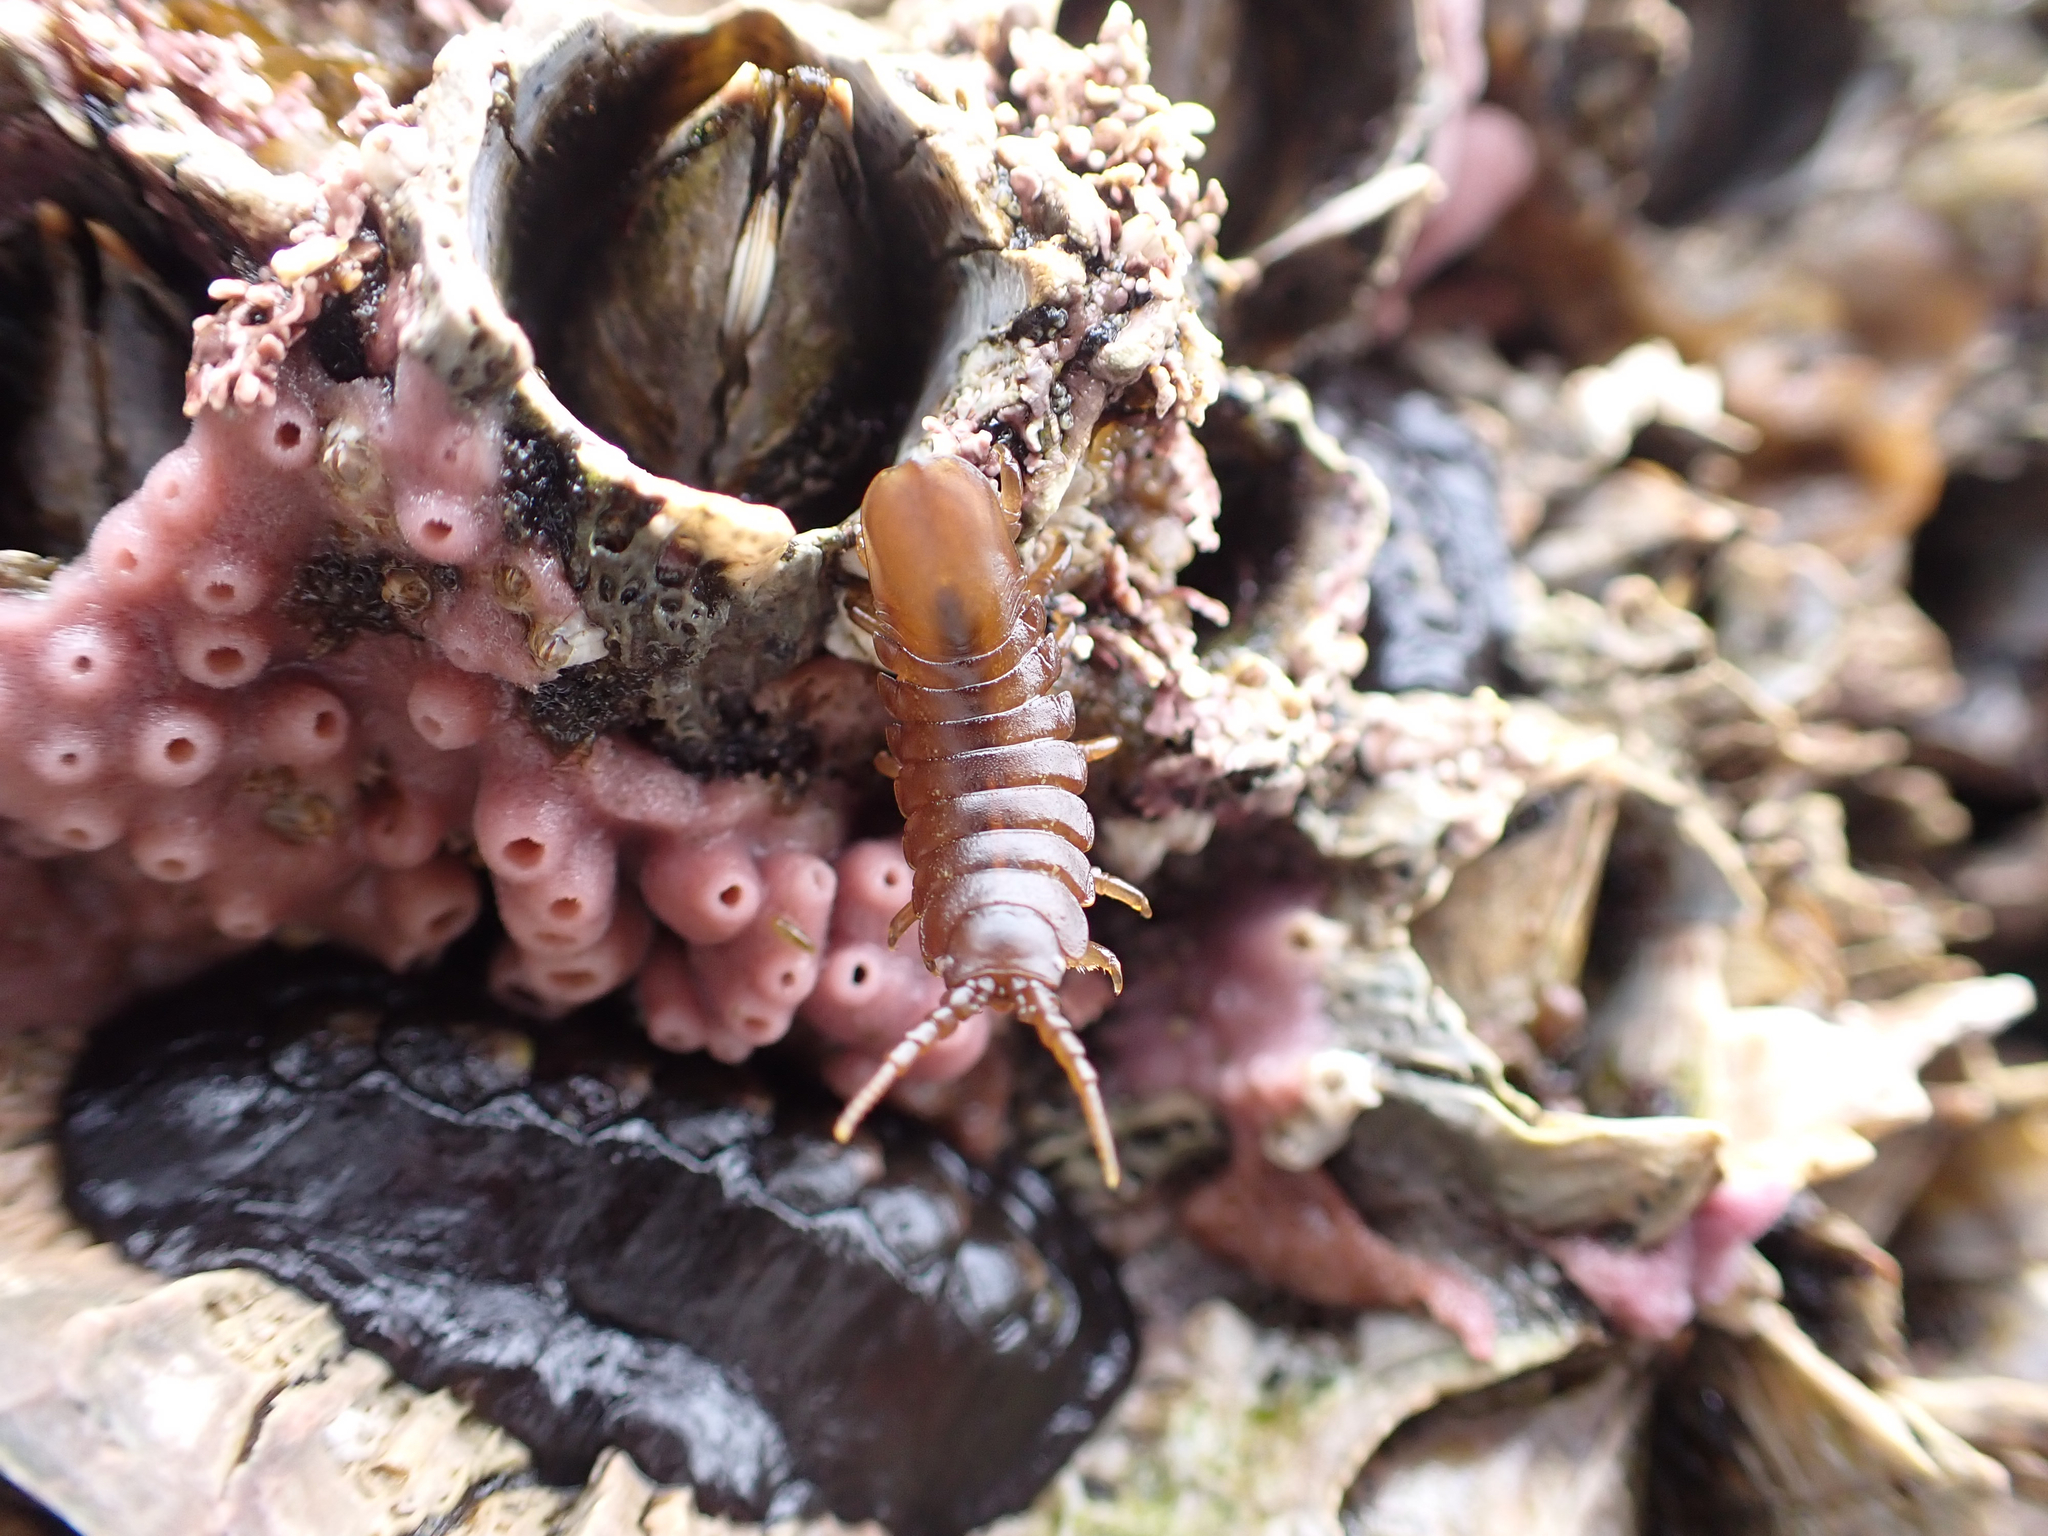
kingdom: Animalia
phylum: Arthropoda
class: Malacostraca
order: Isopoda
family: Idoteidae
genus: Pentidotea
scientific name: Pentidotea wosnesenskii
